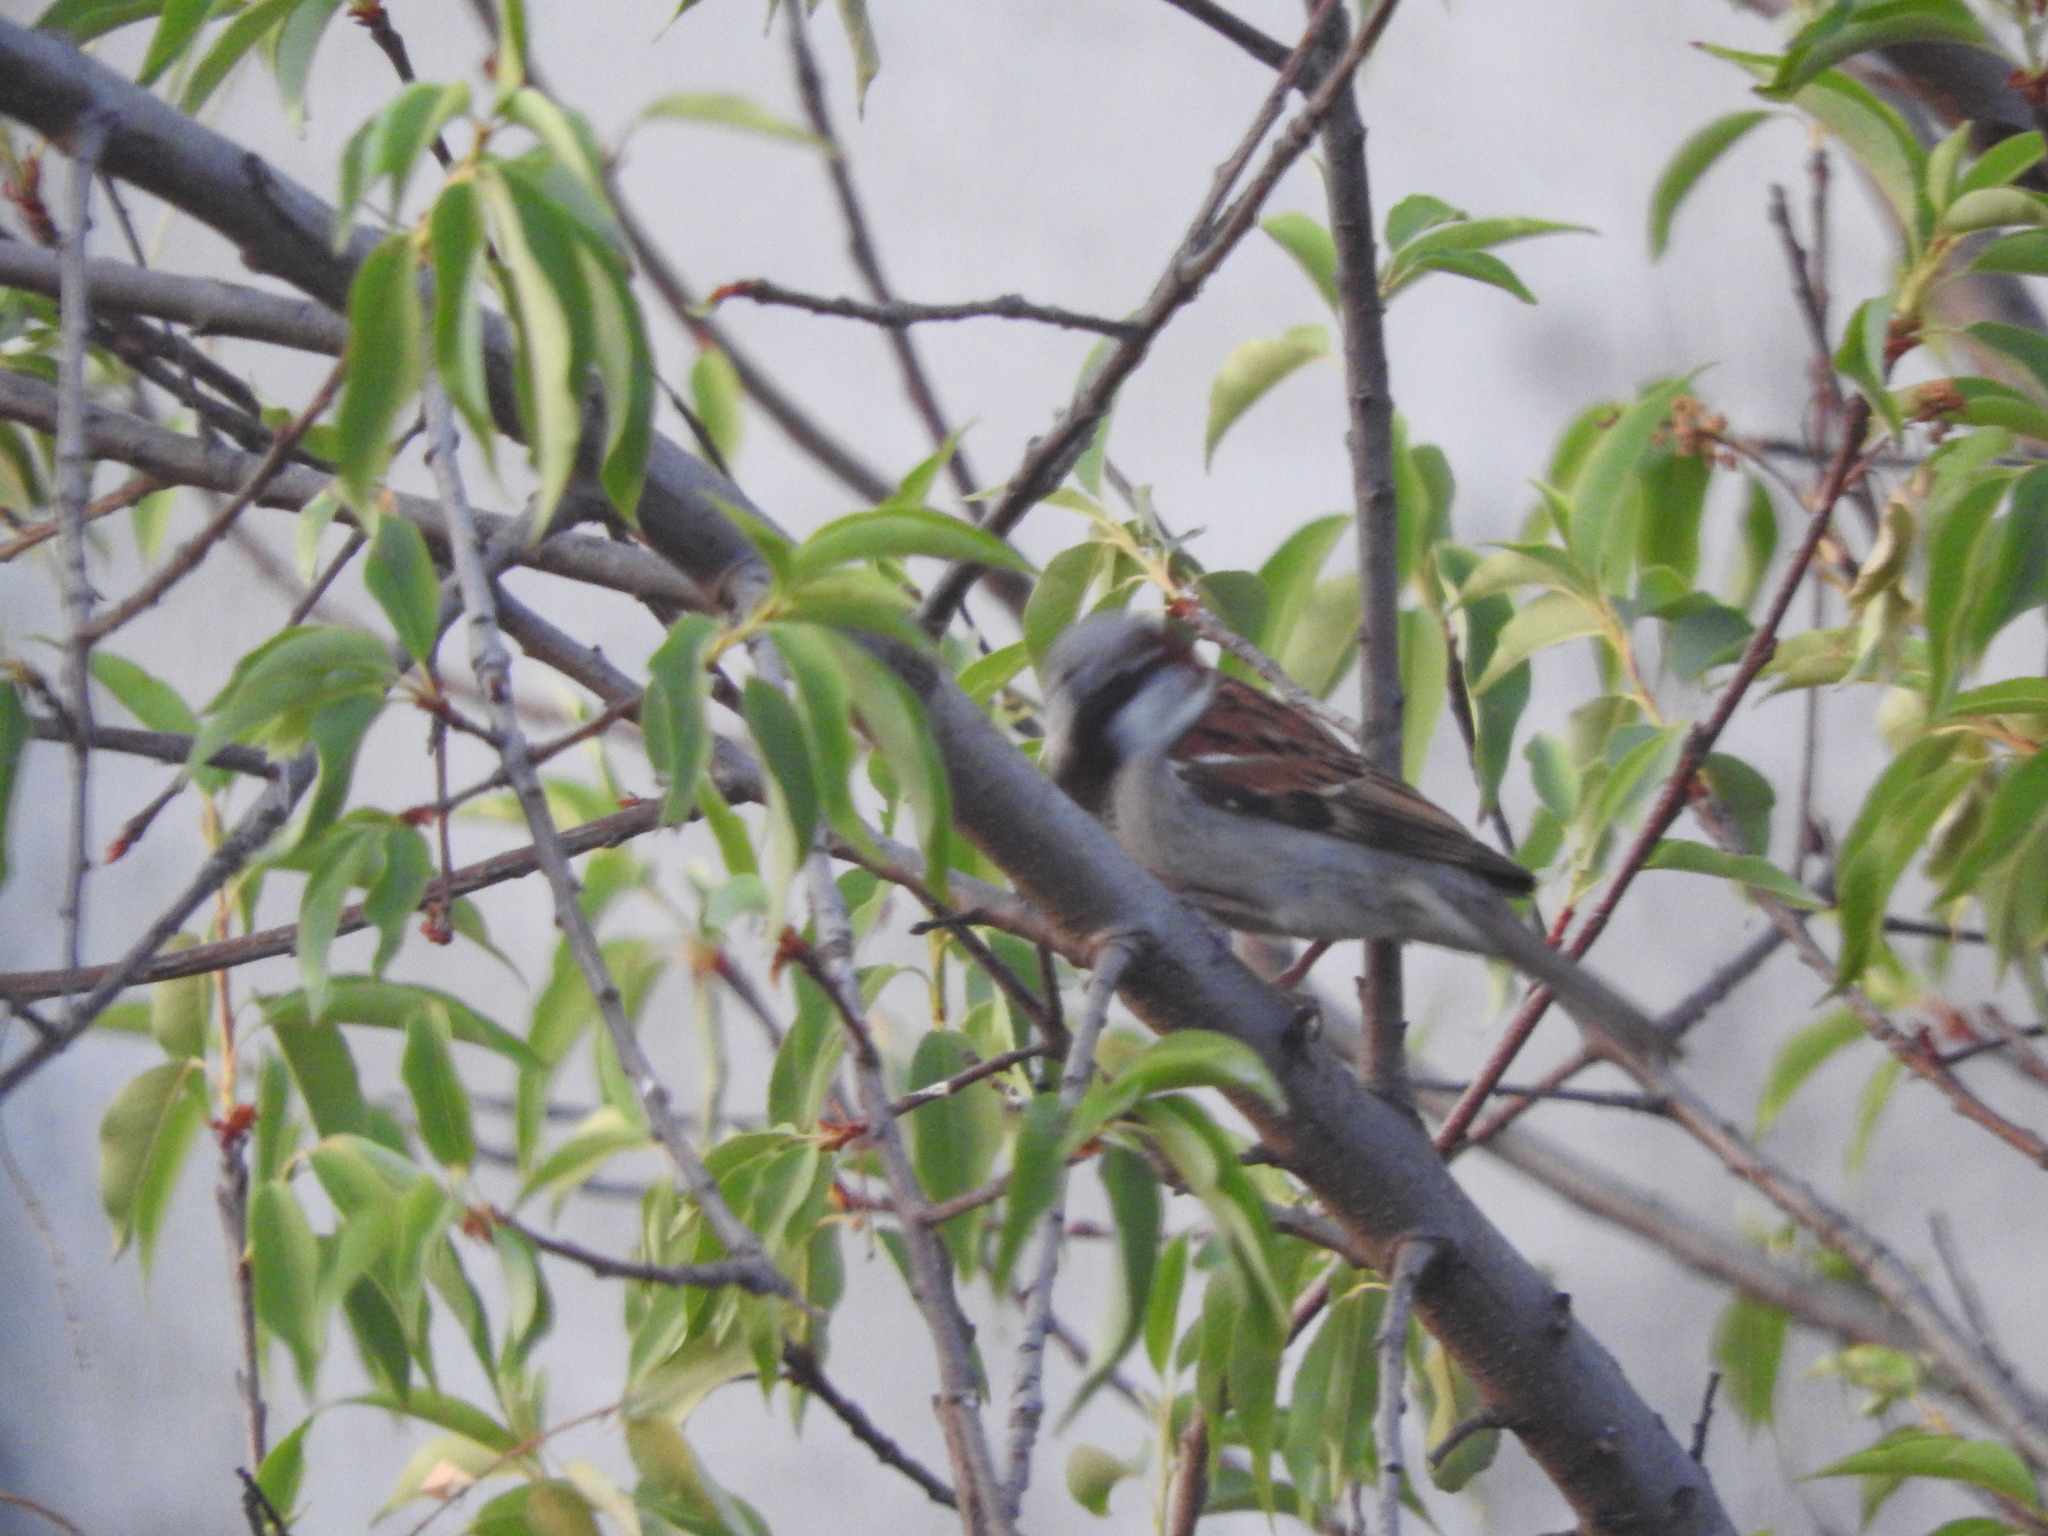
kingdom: Animalia
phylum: Chordata
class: Aves
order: Passeriformes
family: Passeridae
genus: Passer
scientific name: Passer domesticus
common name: House sparrow
